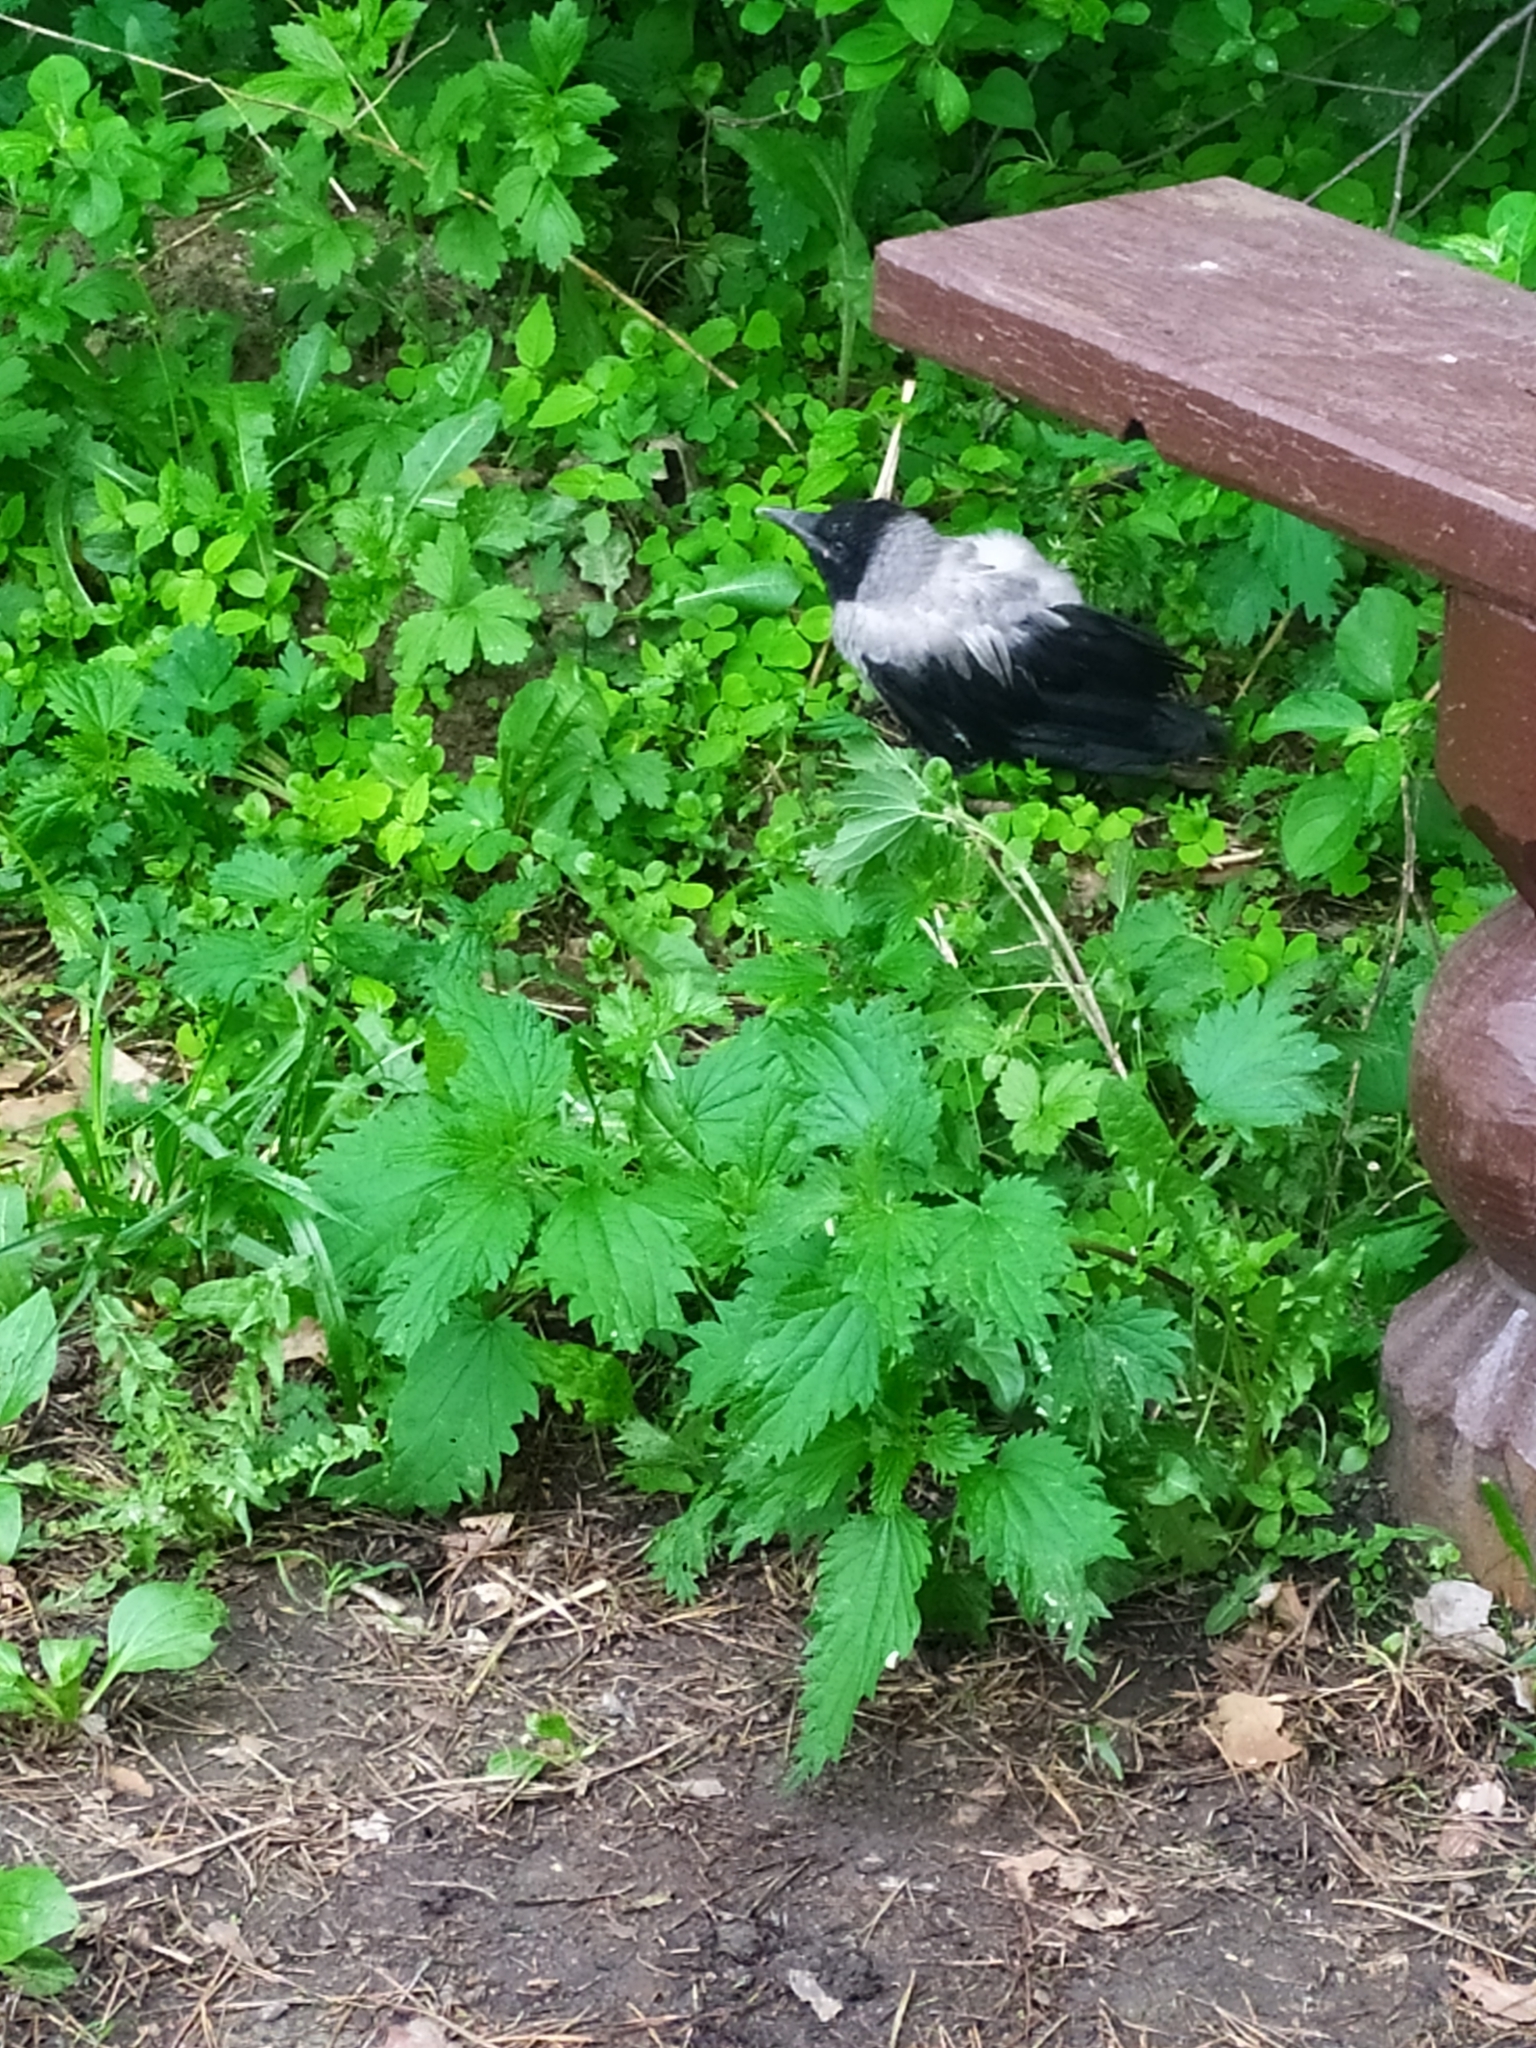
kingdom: Animalia
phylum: Chordata
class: Aves
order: Passeriformes
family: Corvidae
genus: Corvus
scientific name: Corvus cornix
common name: Hooded crow
